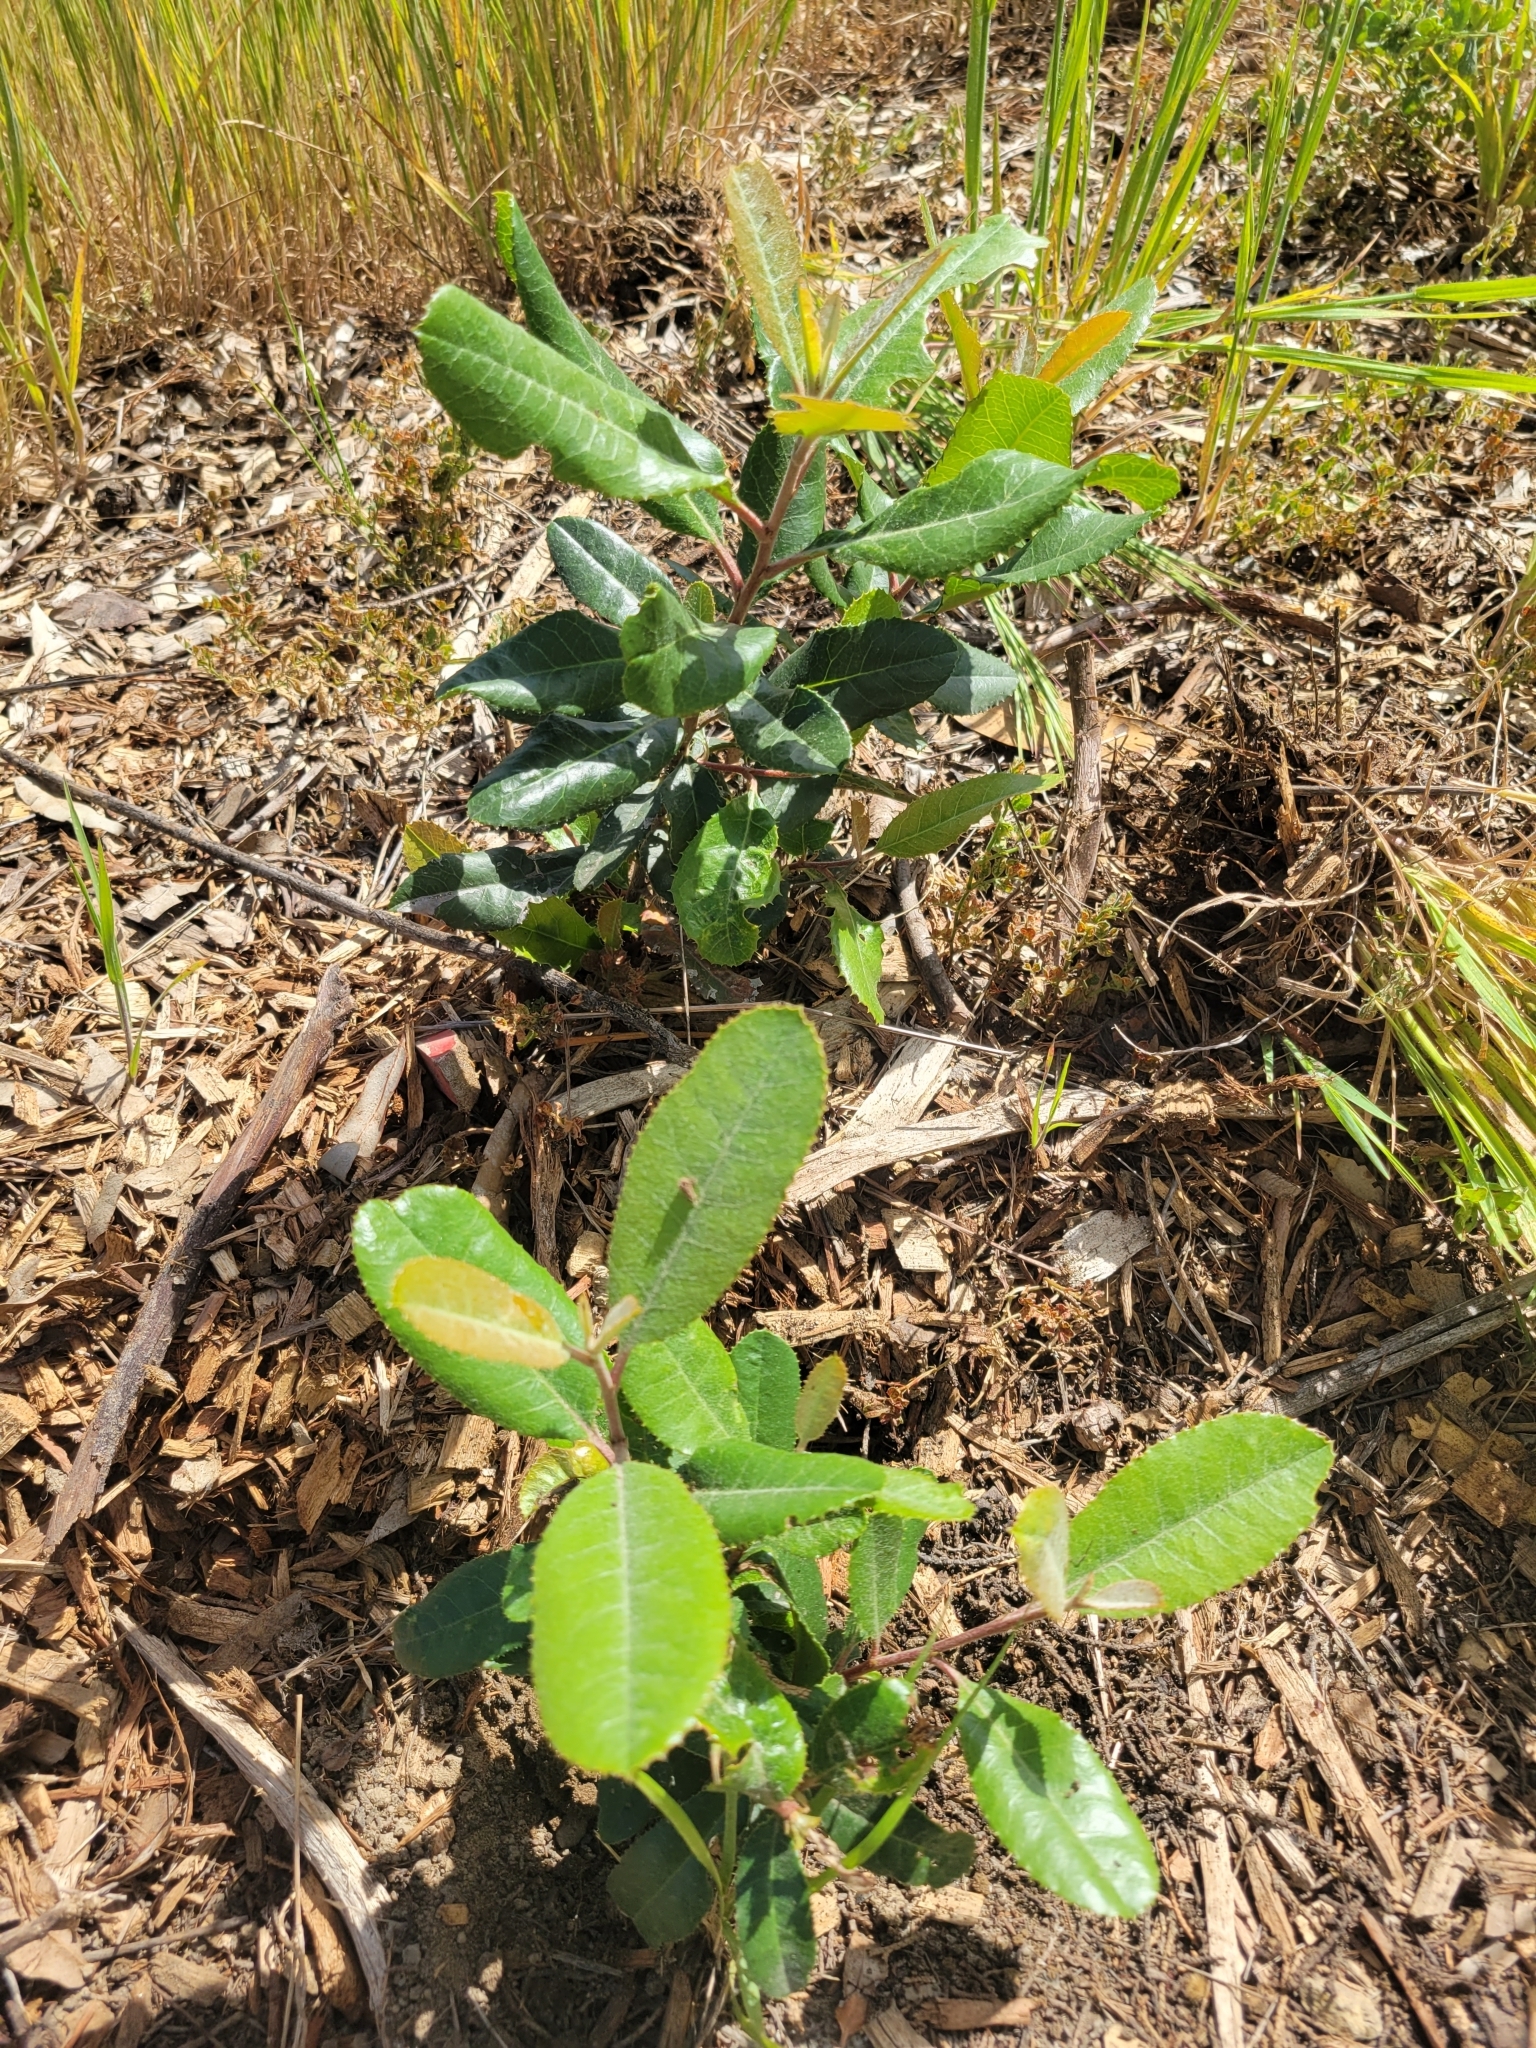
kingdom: Plantae
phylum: Tracheophyta
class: Magnoliopsida
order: Rosales
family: Rosaceae
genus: Heteromeles
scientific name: Heteromeles arbutifolia
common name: California-holly
